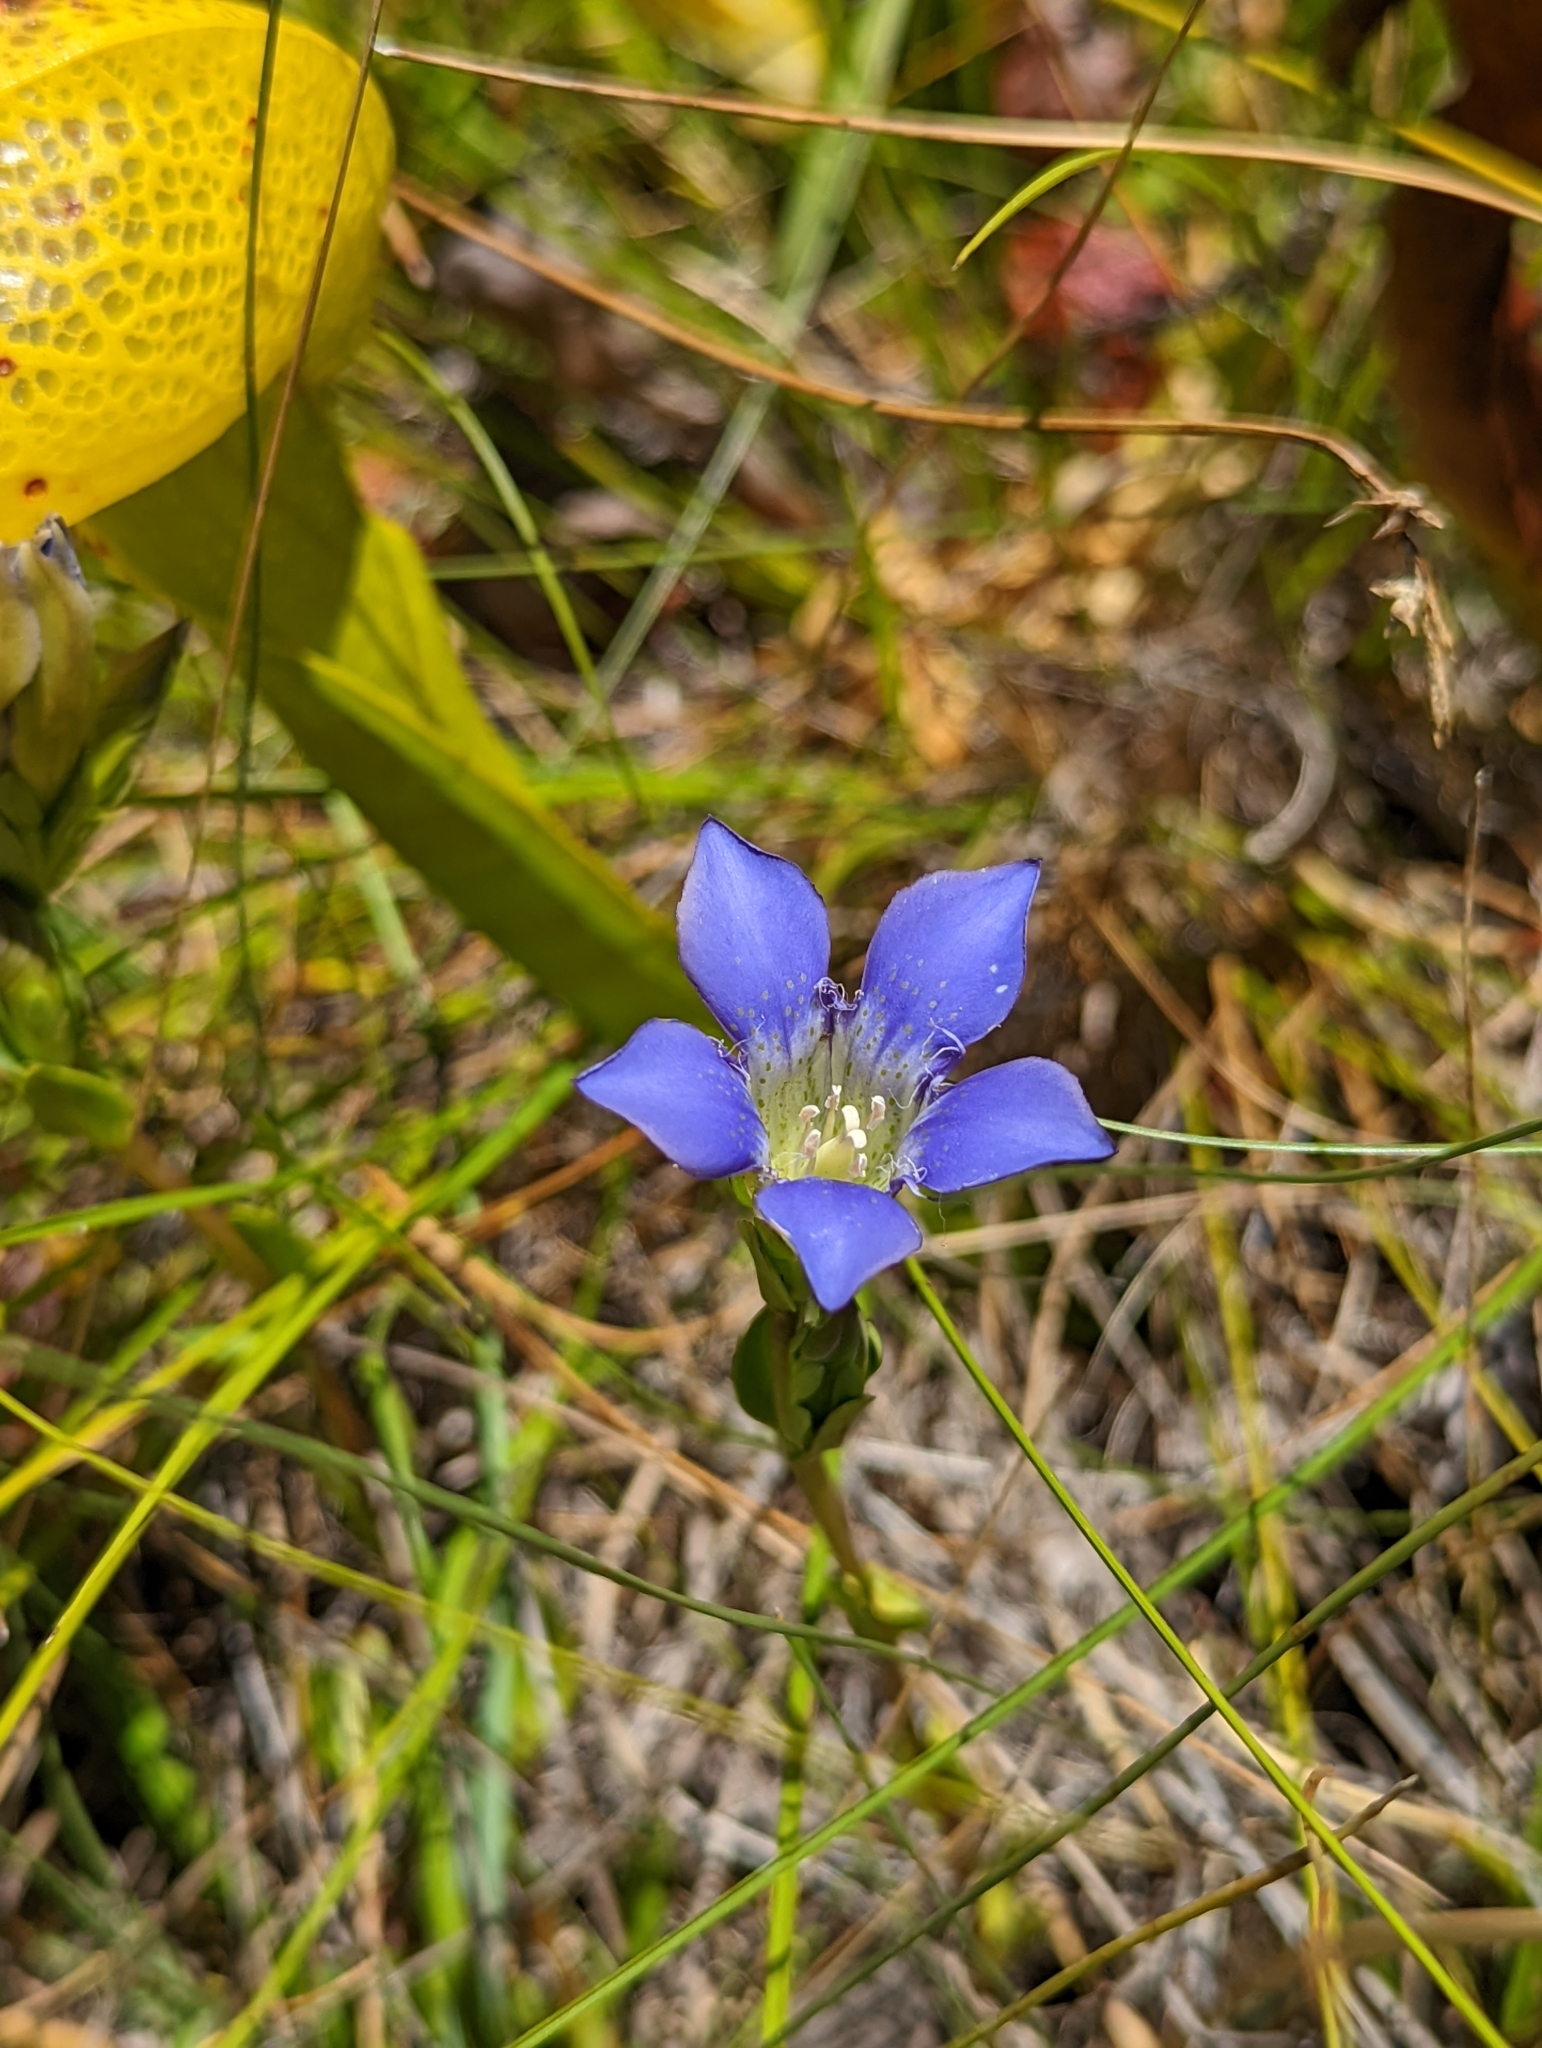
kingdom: Plantae
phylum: Tracheophyta
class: Magnoliopsida
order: Gentianales
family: Gentianaceae
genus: Gentiana
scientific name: Gentiana setigera
